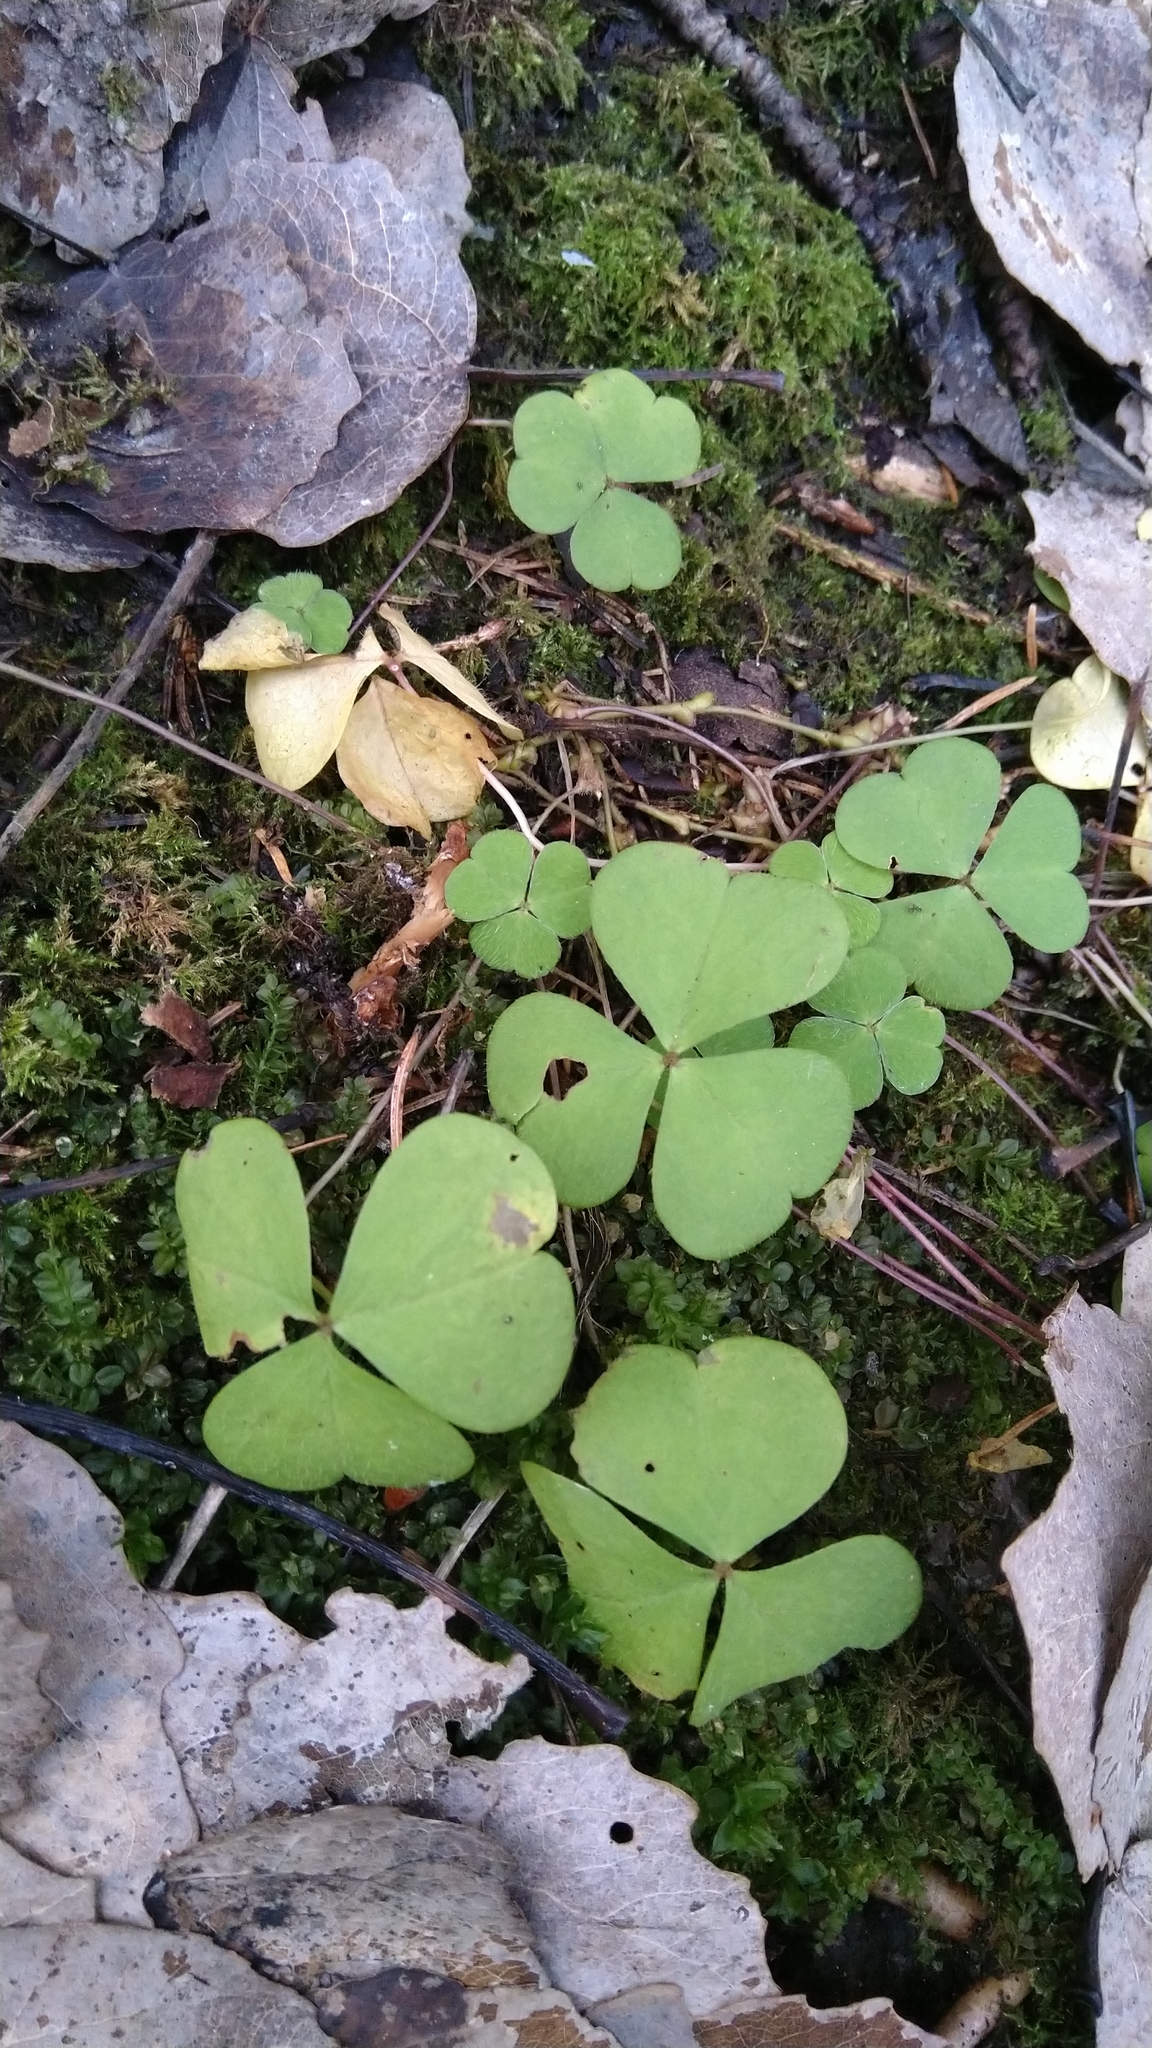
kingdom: Plantae
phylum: Tracheophyta
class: Magnoliopsida
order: Oxalidales
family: Oxalidaceae
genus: Oxalis
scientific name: Oxalis acetosella
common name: Wood-sorrel
